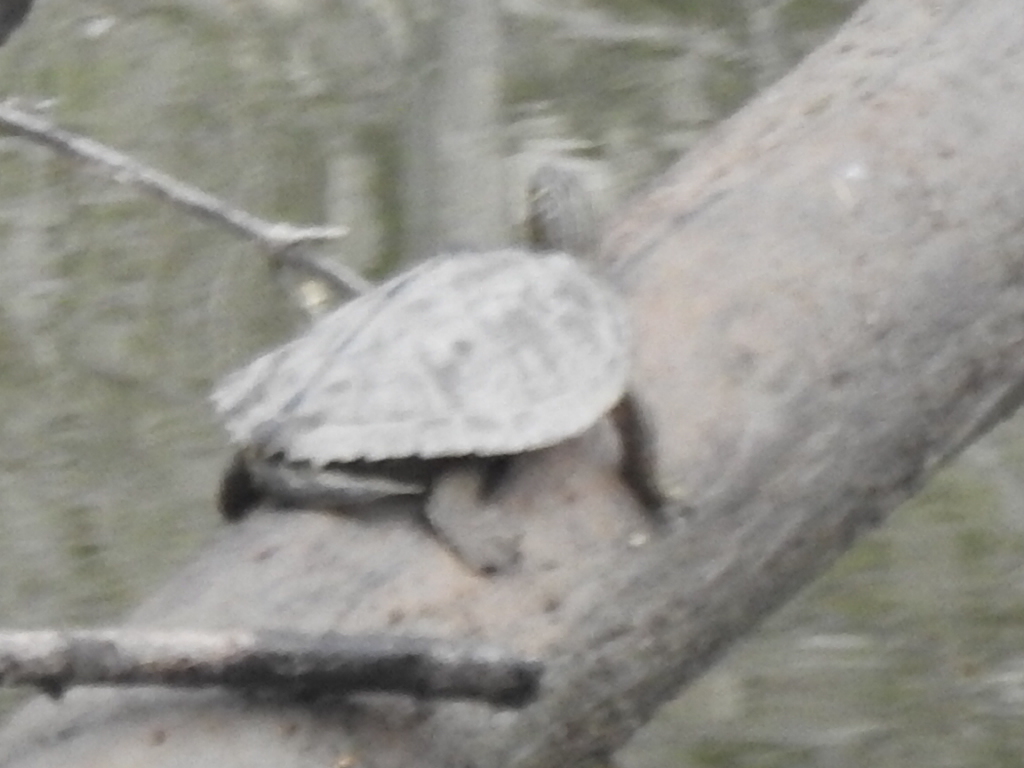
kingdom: Animalia
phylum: Chordata
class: Testudines
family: Emydidae
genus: Graptemys
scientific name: Graptemys pseudogeographica
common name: False map turtle
